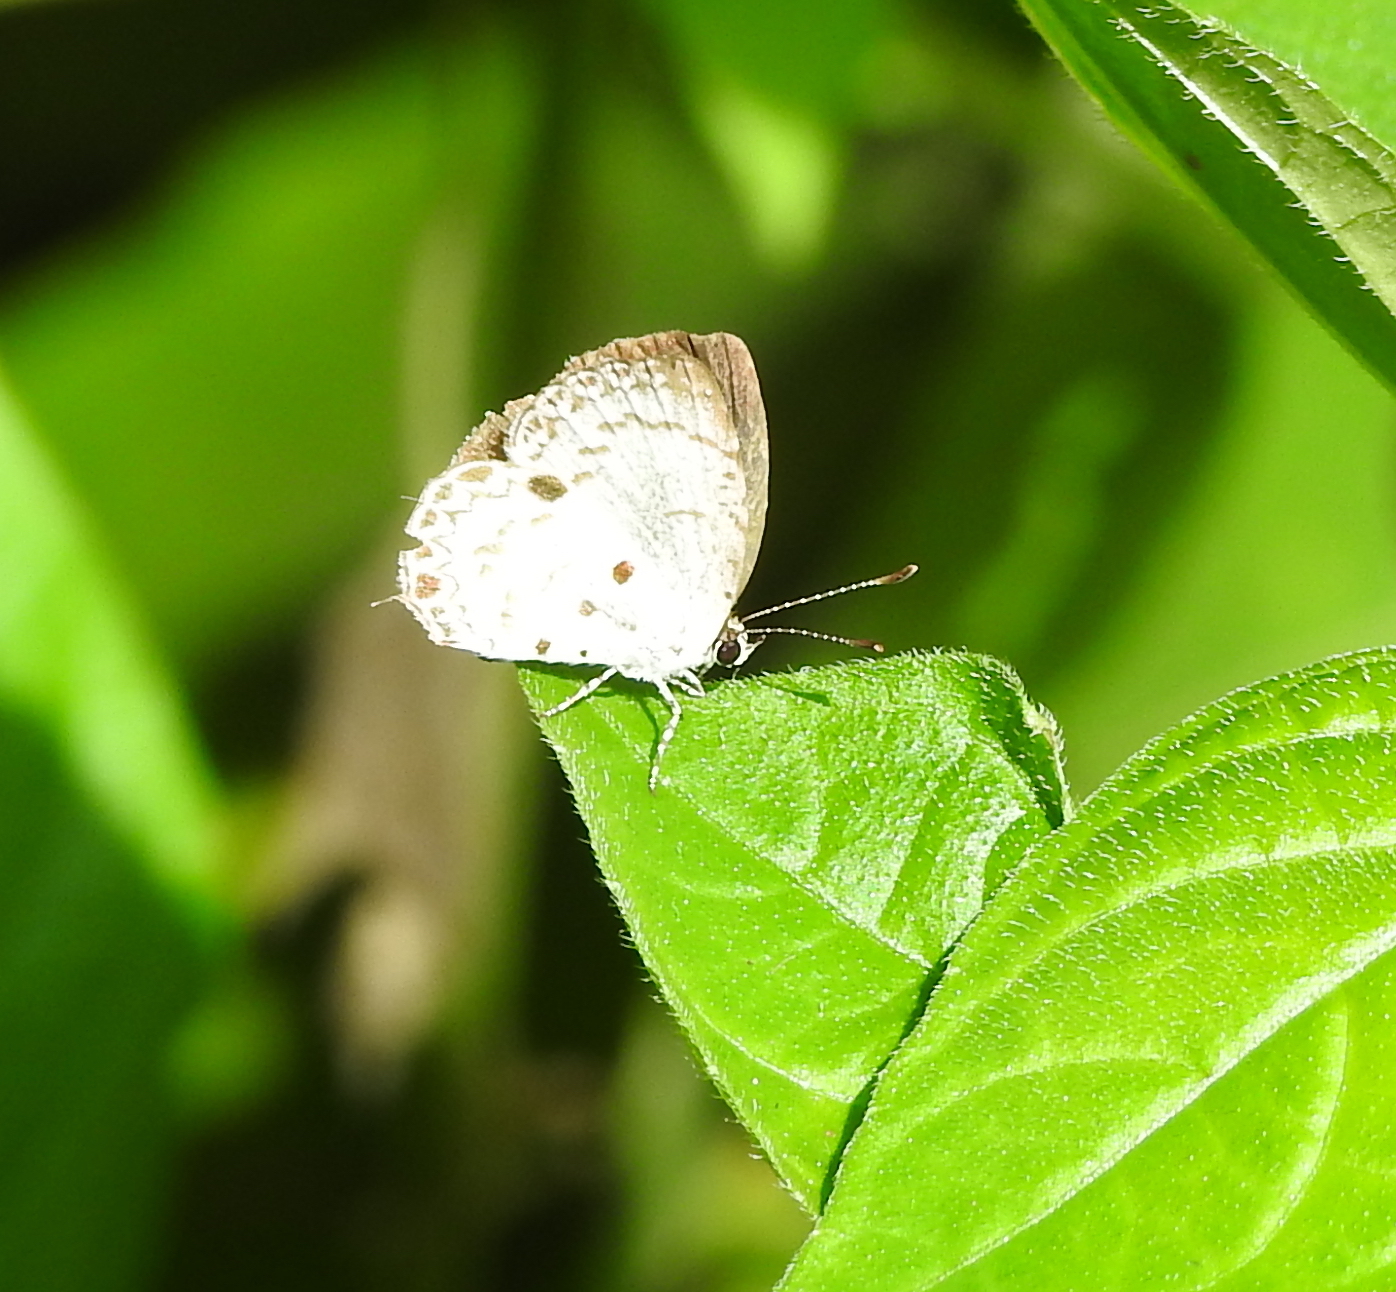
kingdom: Animalia
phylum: Arthropoda
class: Insecta
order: Lepidoptera
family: Lycaenidae
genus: Megisba
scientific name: Megisba malaya
